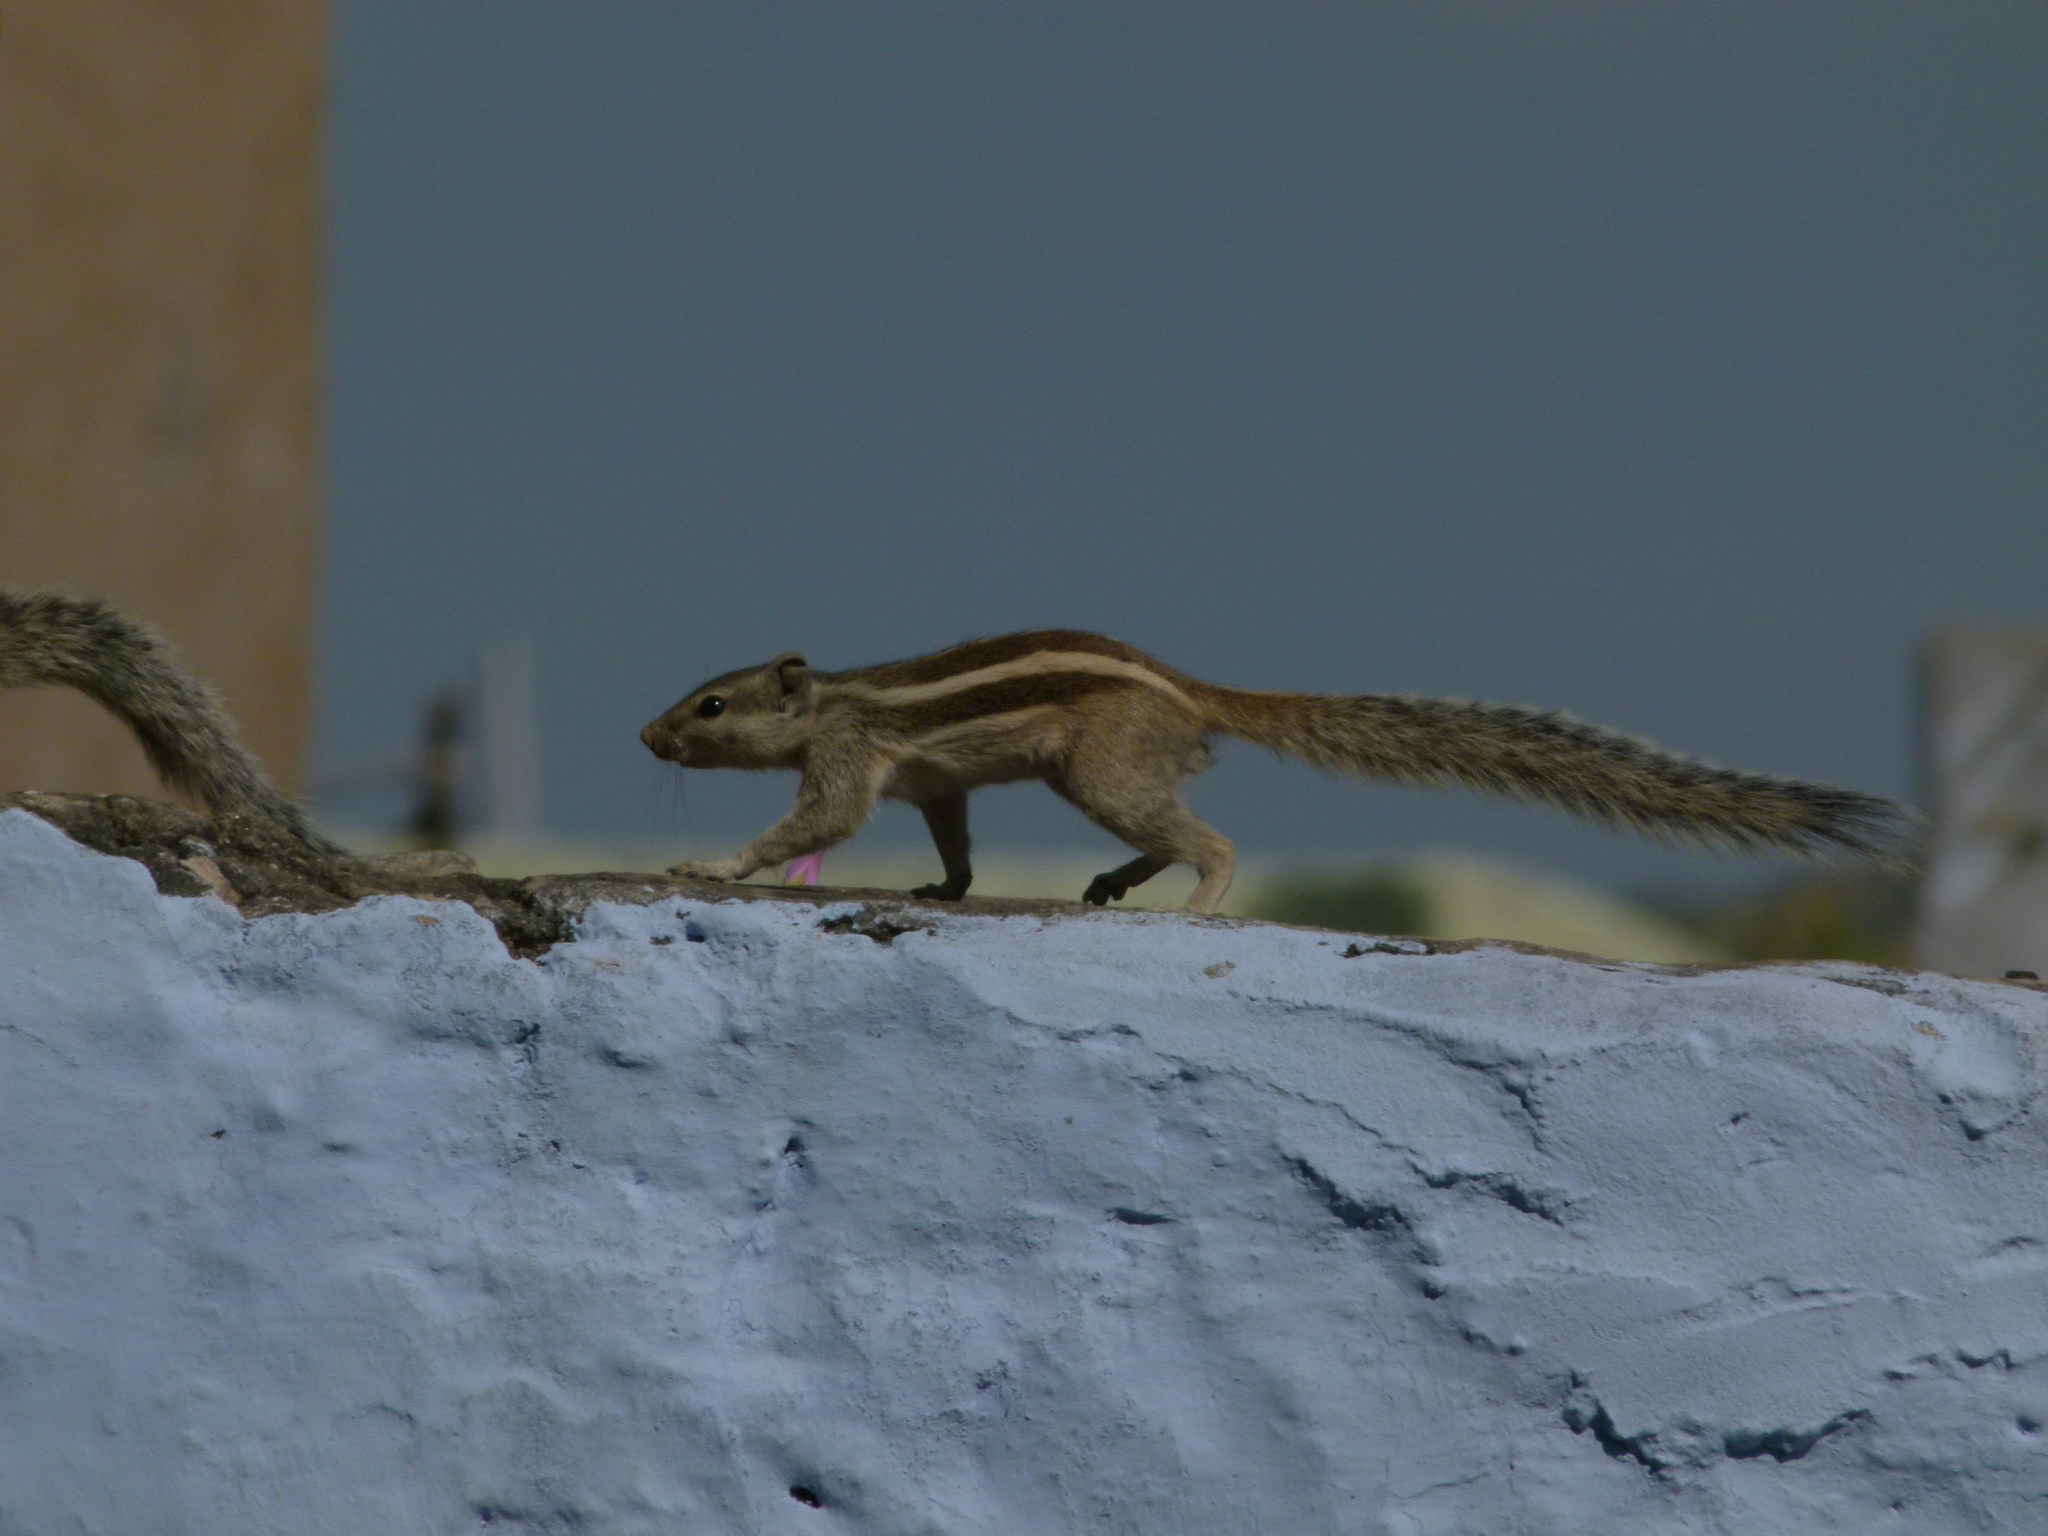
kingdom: Animalia
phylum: Chordata
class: Mammalia
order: Rodentia
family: Sciuridae
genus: Funambulus
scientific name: Funambulus pennantii
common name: Northern palm squirrel
